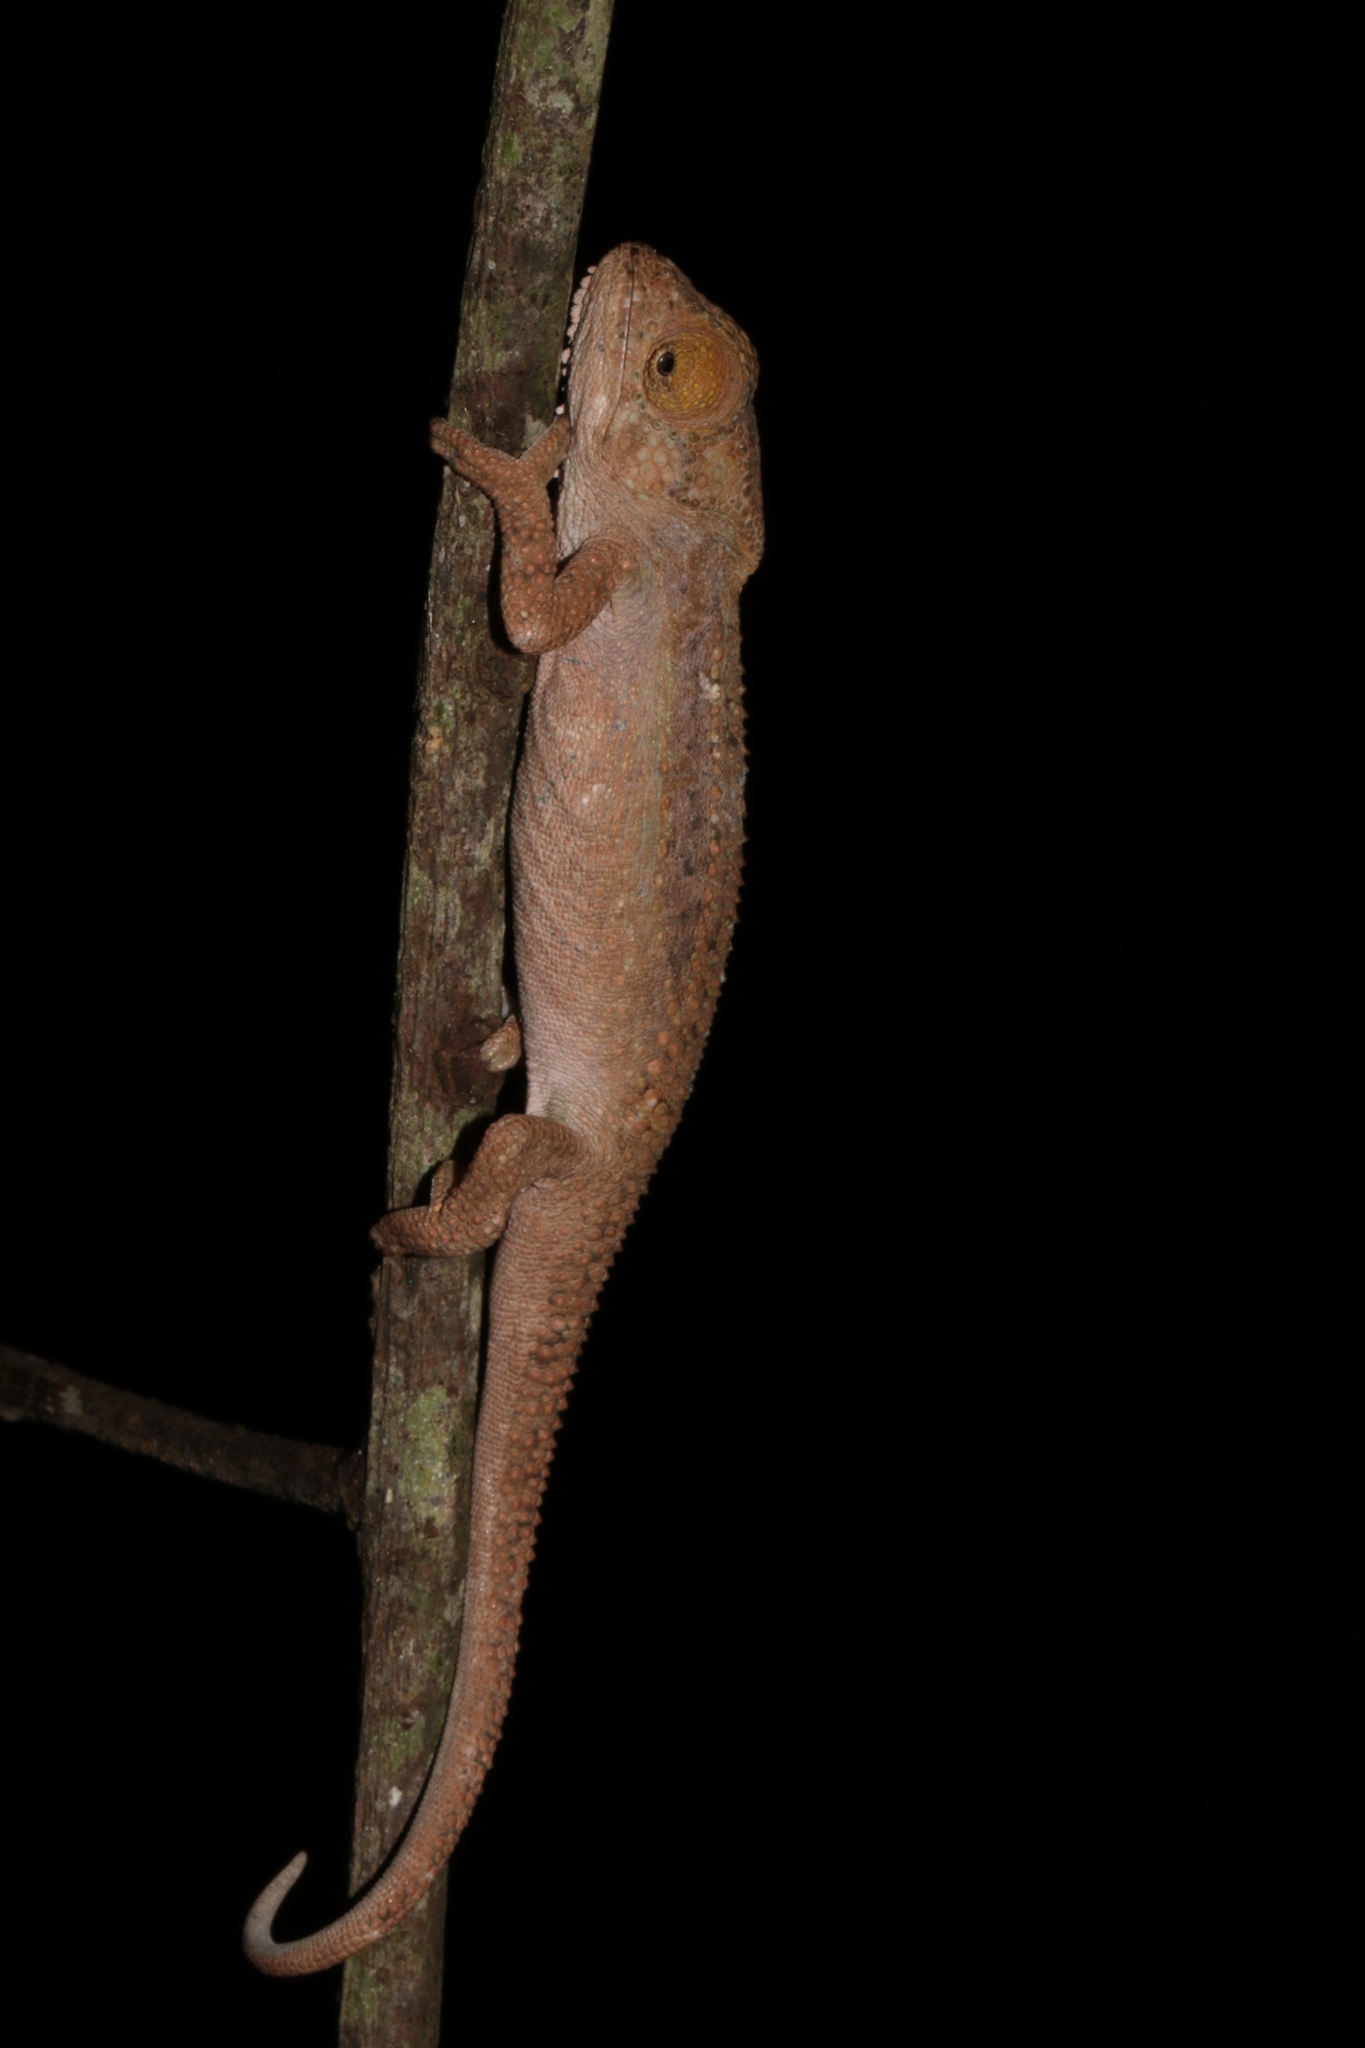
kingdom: Animalia
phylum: Chordata
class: Squamata
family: Chamaeleonidae
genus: Bradypodion
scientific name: Bradypodion venustum
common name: Grootvadersbosch dwarf chameleon
